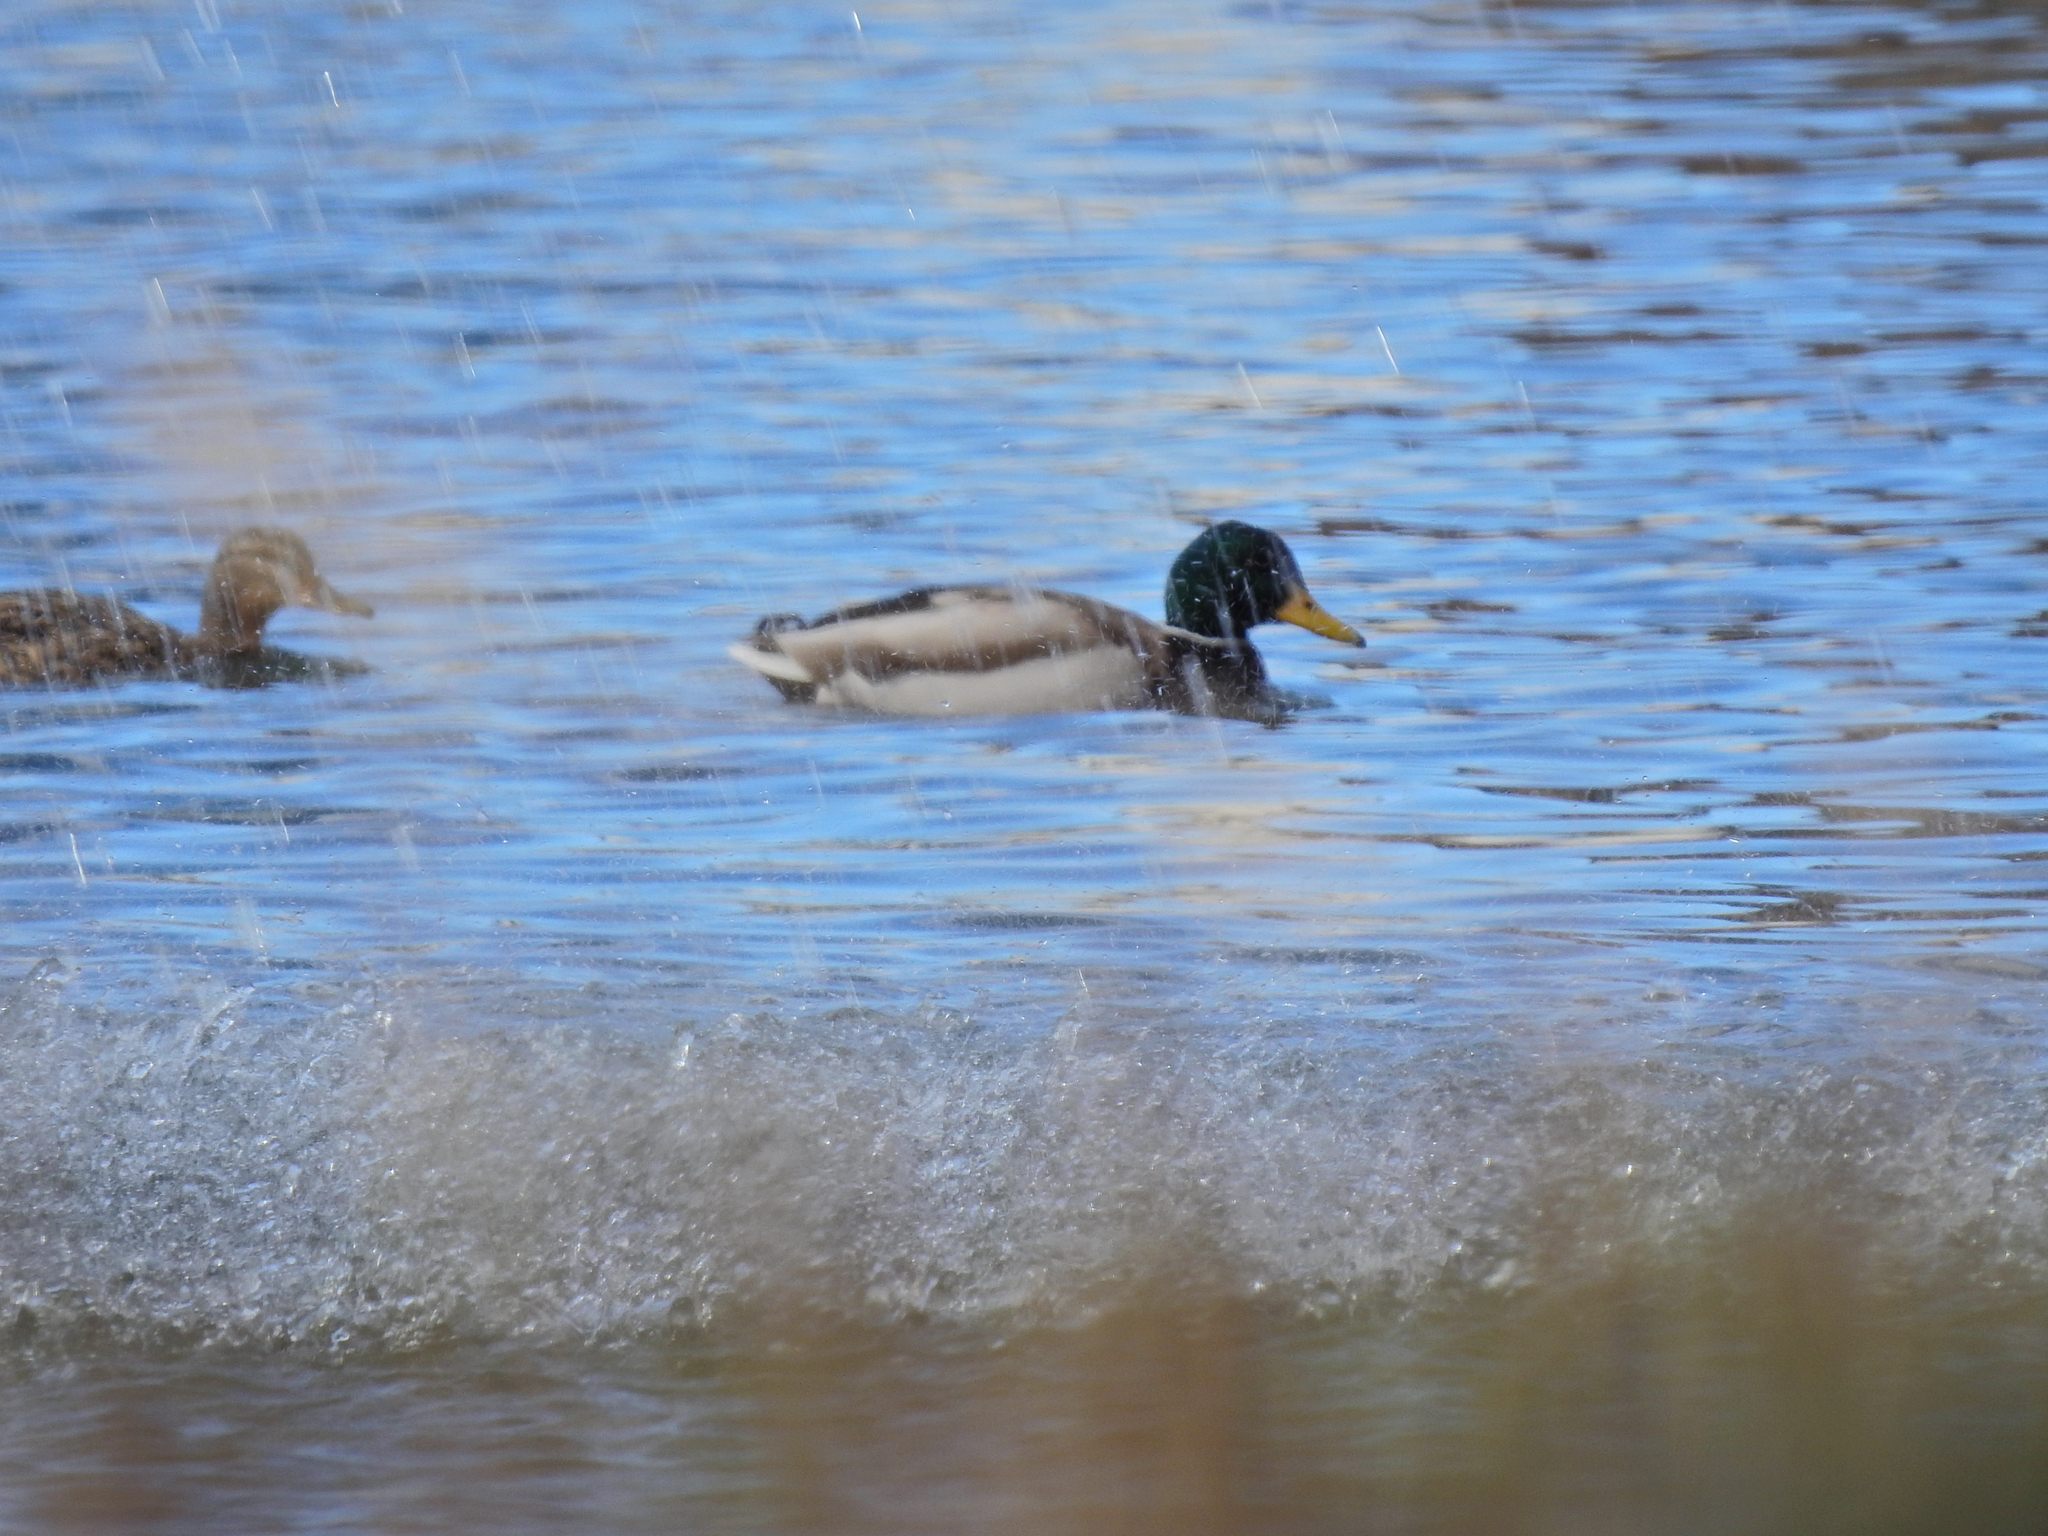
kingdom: Animalia
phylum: Chordata
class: Aves
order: Anseriformes
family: Anatidae
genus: Anas
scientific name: Anas platyrhynchos
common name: Mallard
